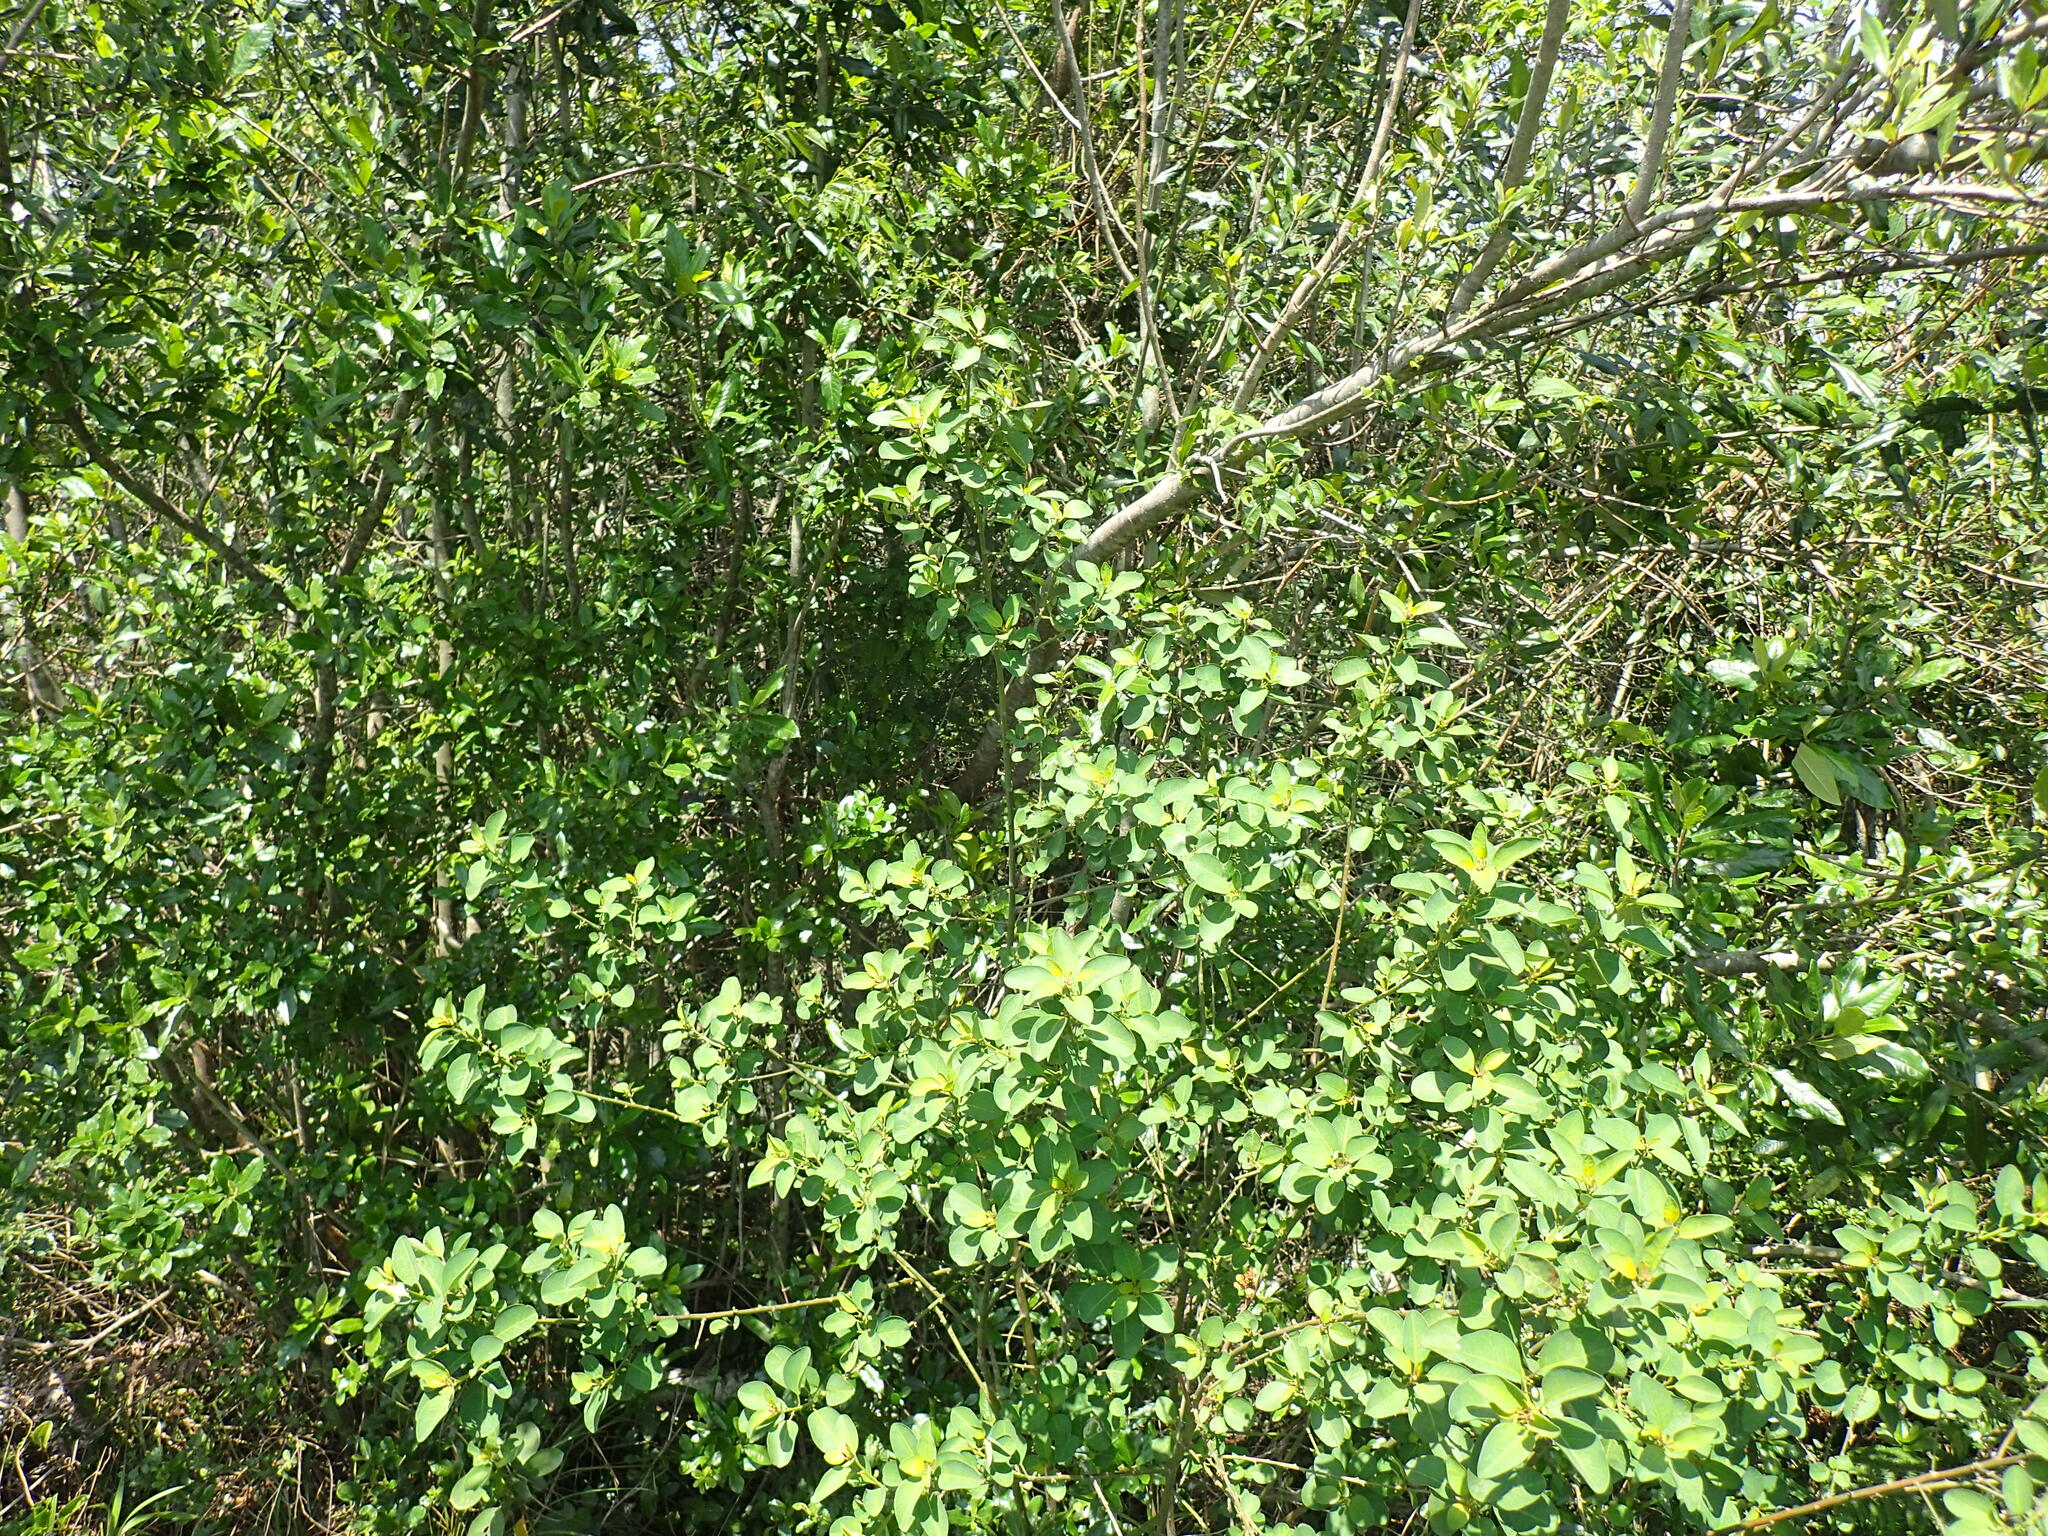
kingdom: Plantae
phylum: Tracheophyta
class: Magnoliopsida
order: Malpighiales
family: Peraceae
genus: Clutia
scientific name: Clutia pulchella
